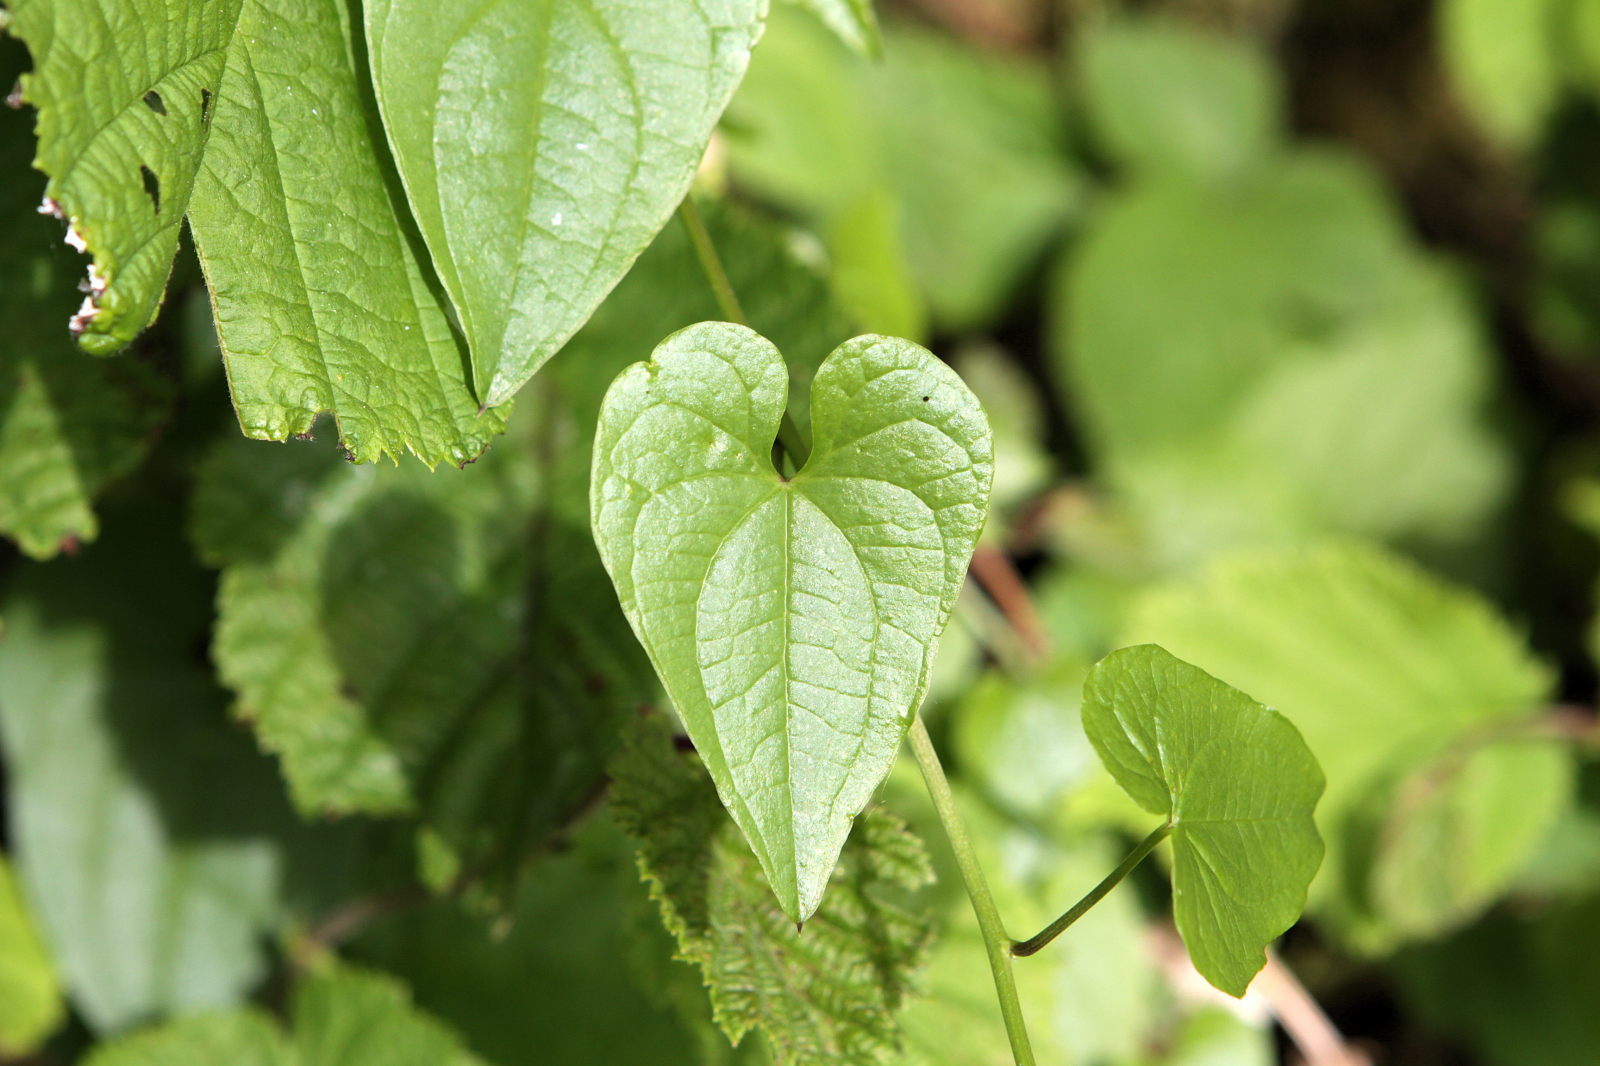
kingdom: Plantae
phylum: Tracheophyta
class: Liliopsida
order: Dioscoreales
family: Dioscoreaceae
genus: Dioscorea
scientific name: Dioscorea communis
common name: Black-bindweed
